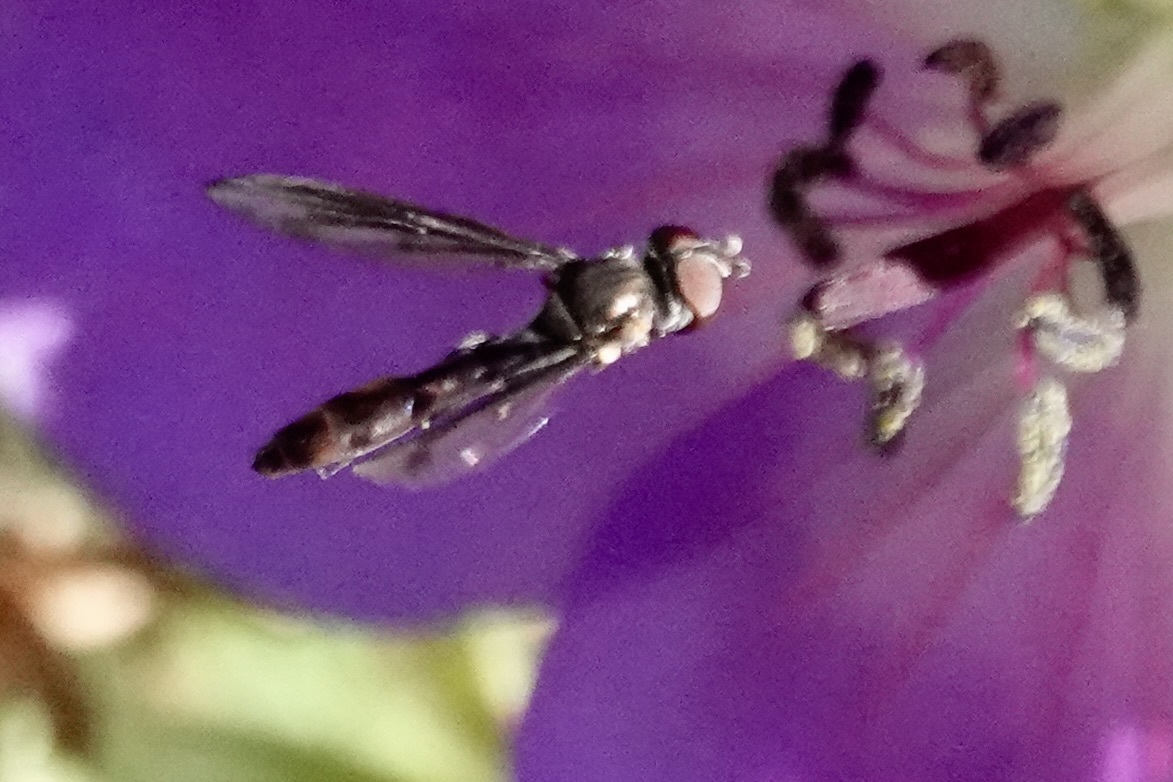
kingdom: Animalia
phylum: Arthropoda
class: Insecta
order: Diptera
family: Syrphidae
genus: Ocyptamus
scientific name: Ocyptamus fuscipennis
